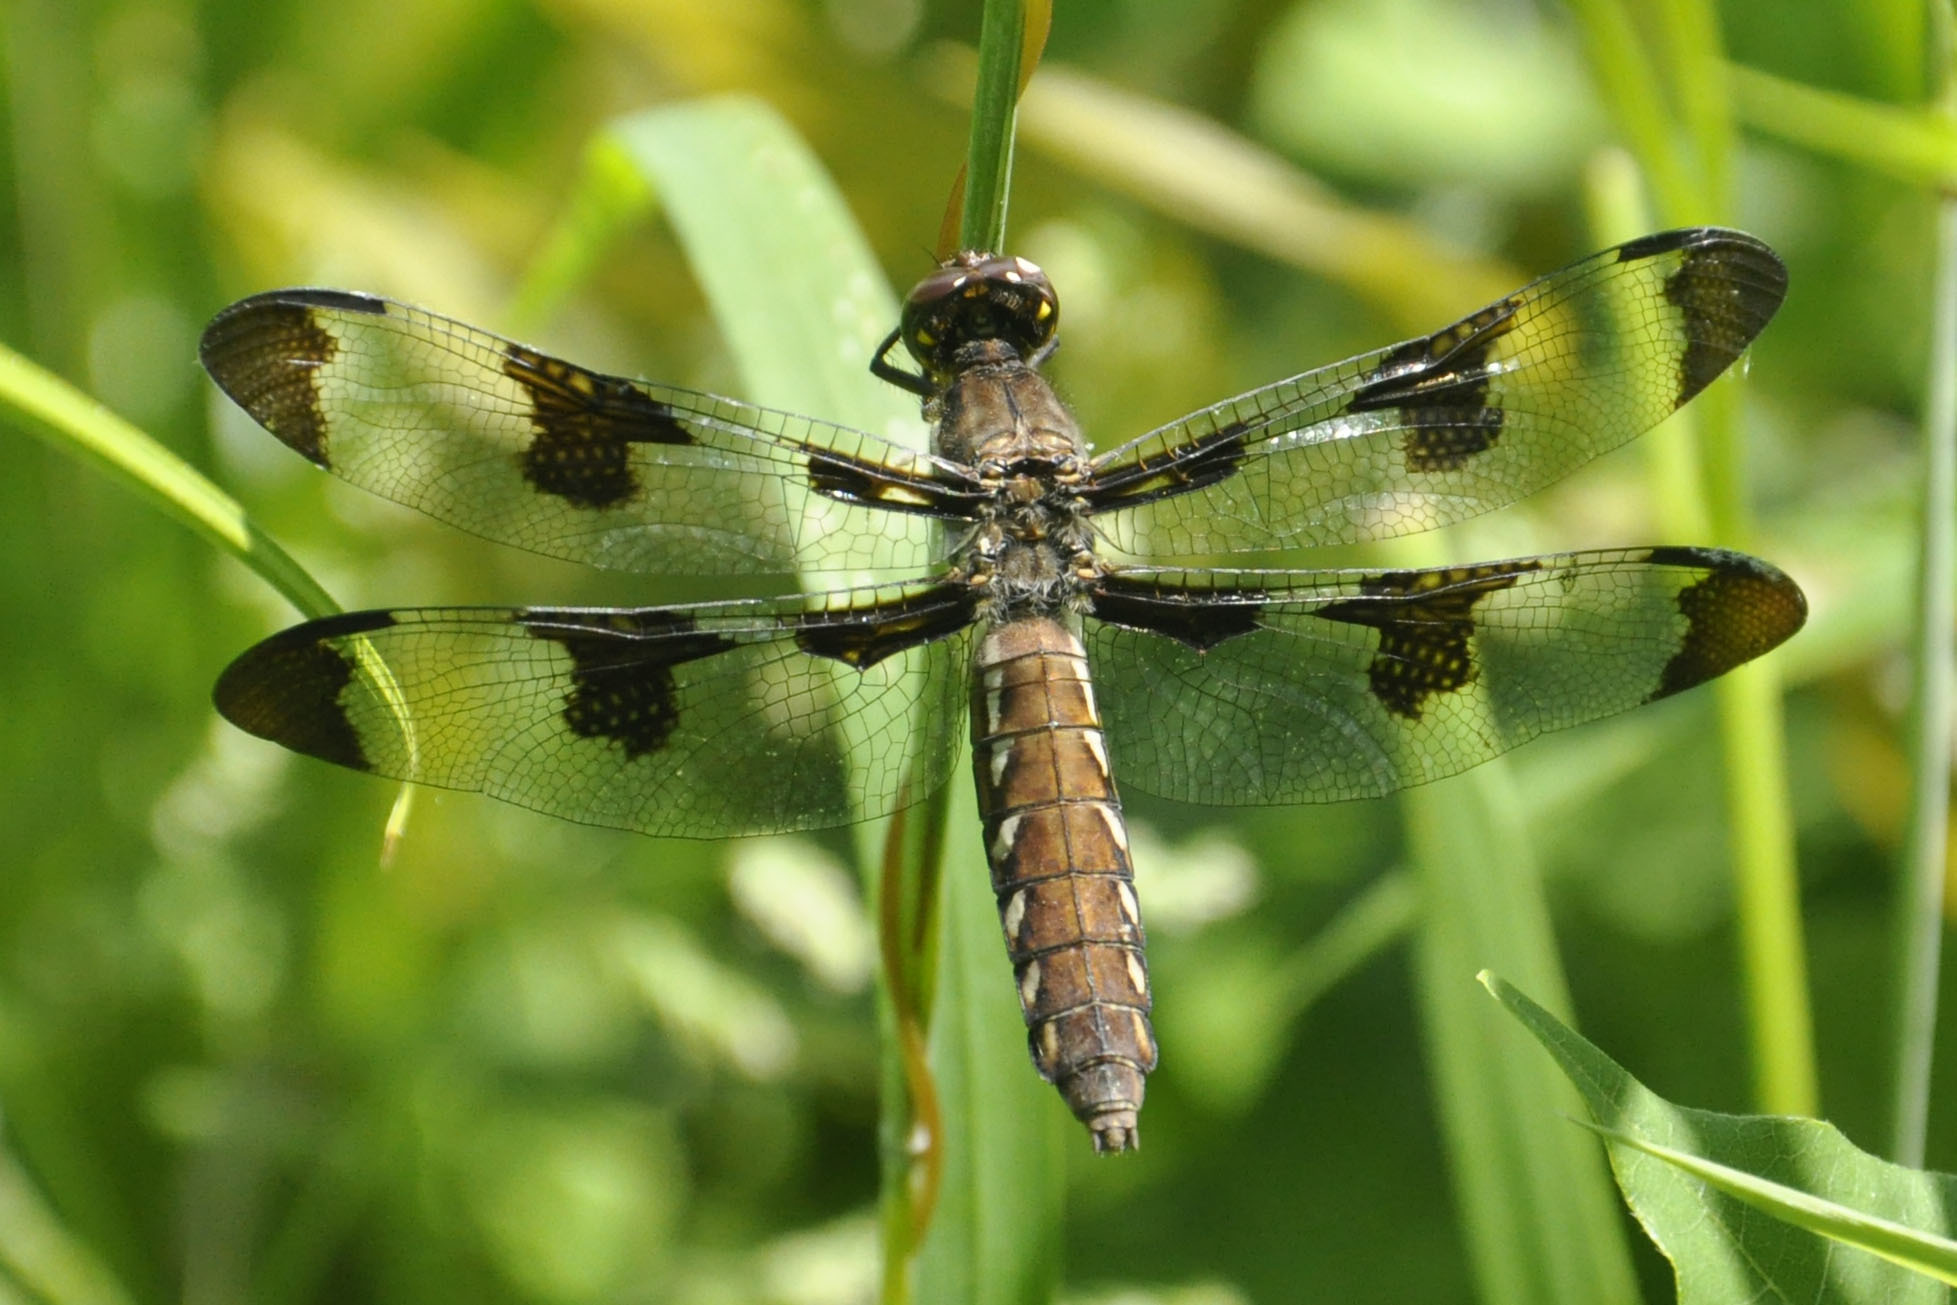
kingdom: Animalia
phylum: Arthropoda
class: Insecta
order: Odonata
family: Libellulidae
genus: Plathemis
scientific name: Plathemis lydia
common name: Common whitetail
